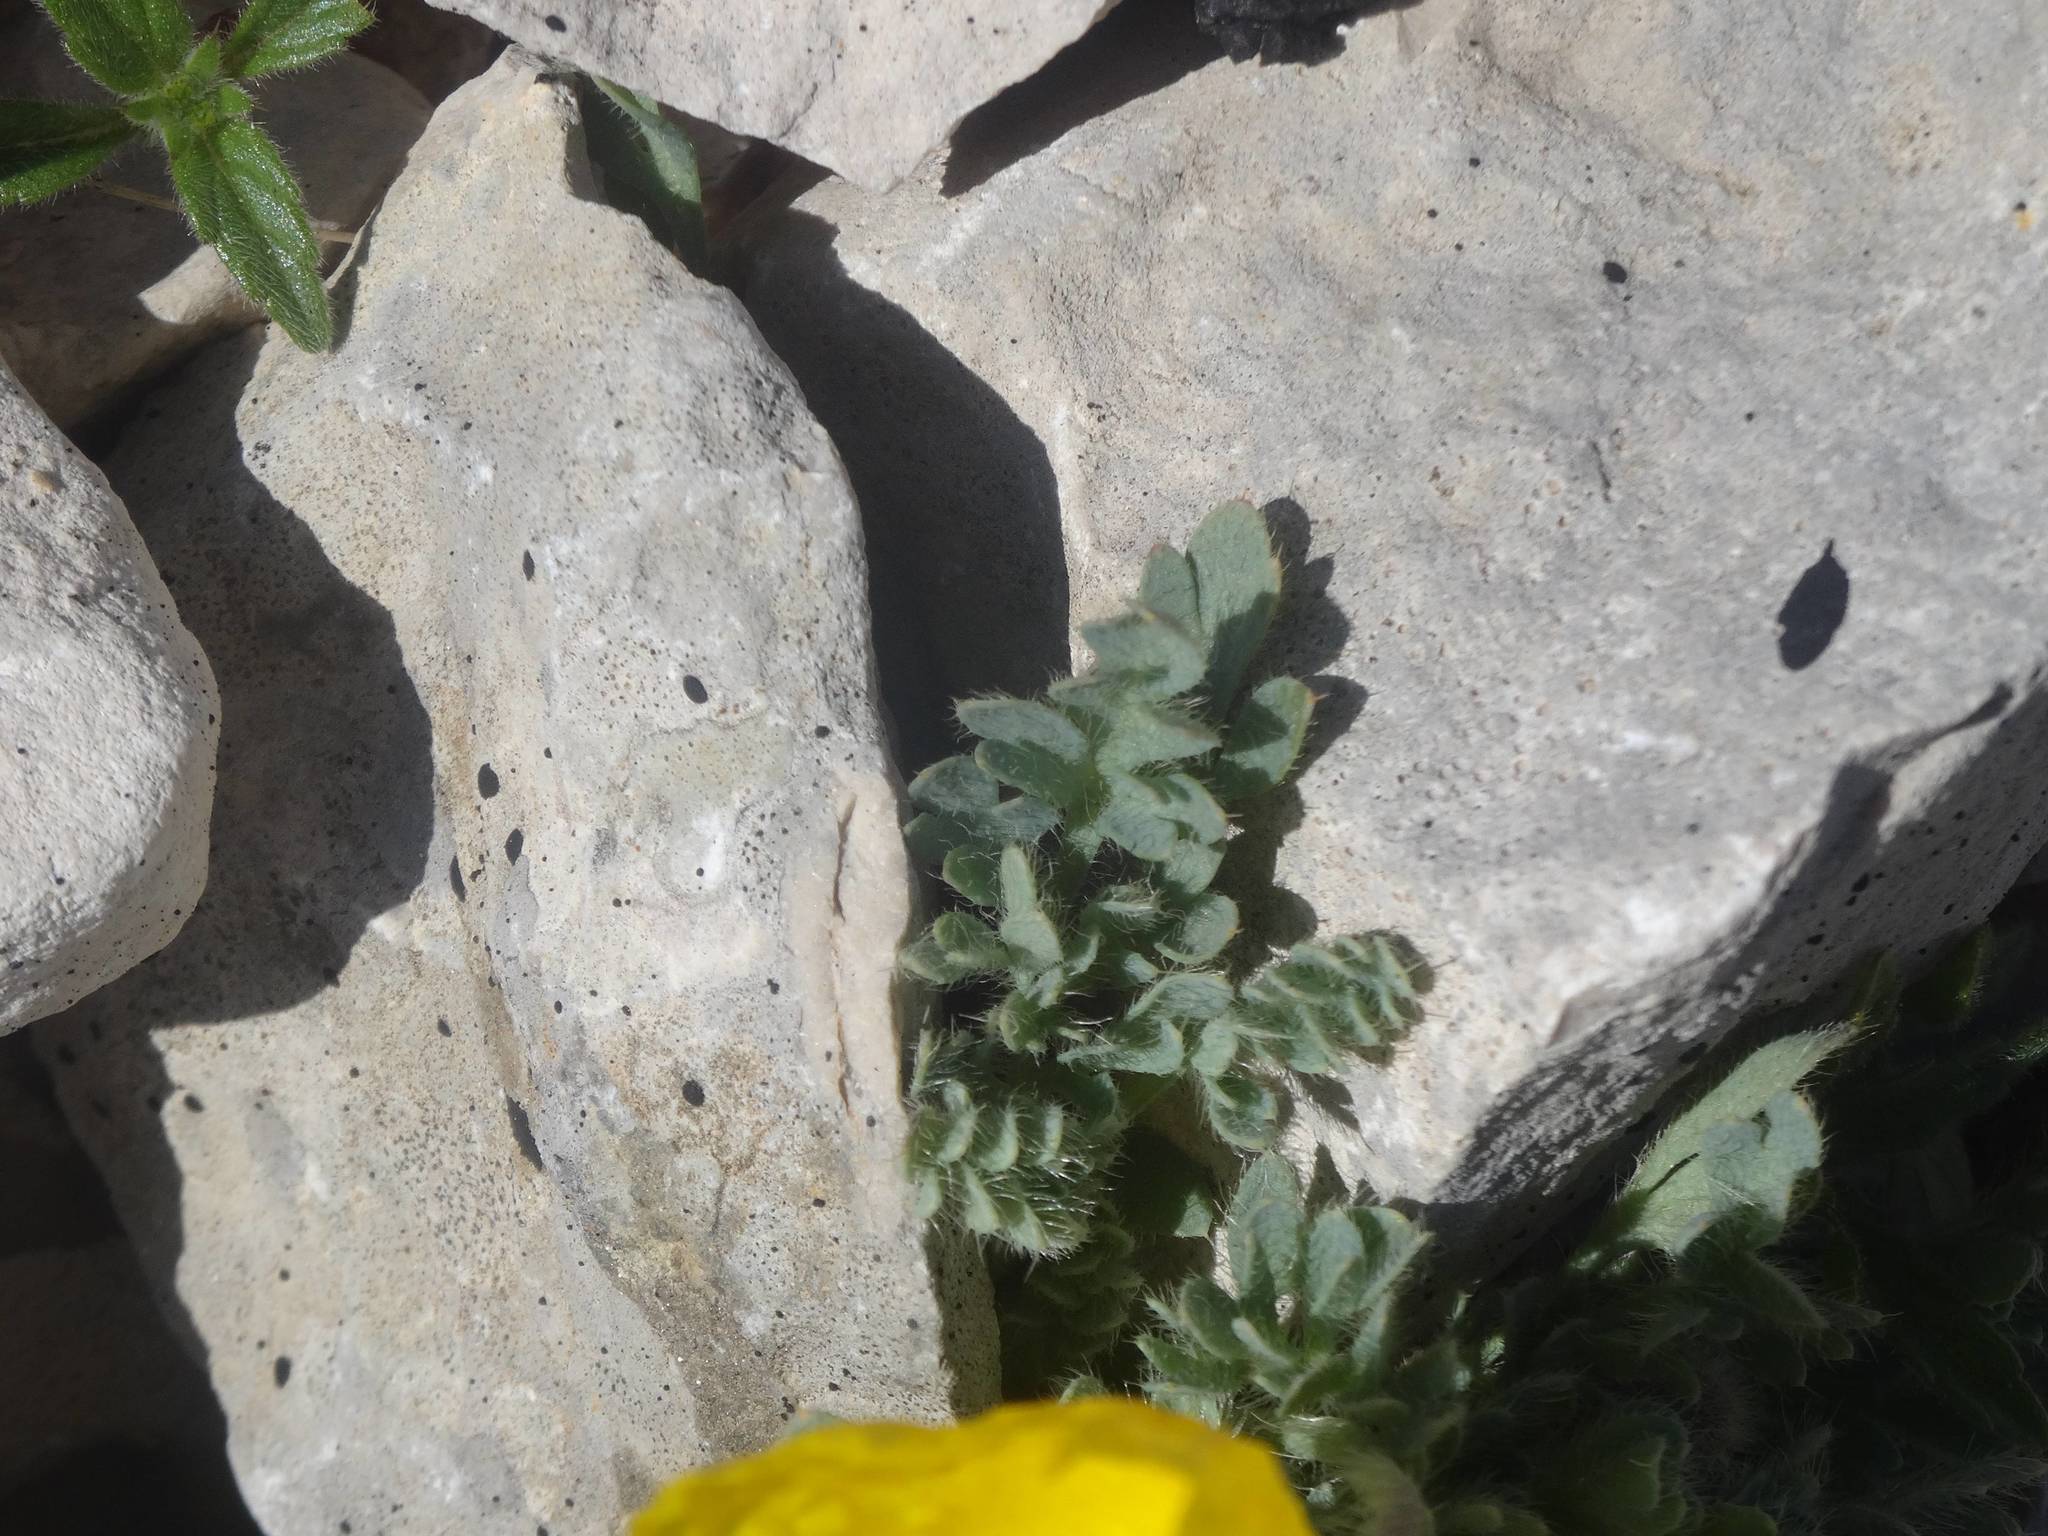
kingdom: Plantae
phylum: Tracheophyta
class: Magnoliopsida
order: Ranunculales
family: Papaveraceae
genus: Papaver
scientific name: Papaver alpinum
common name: Austrian poppy
